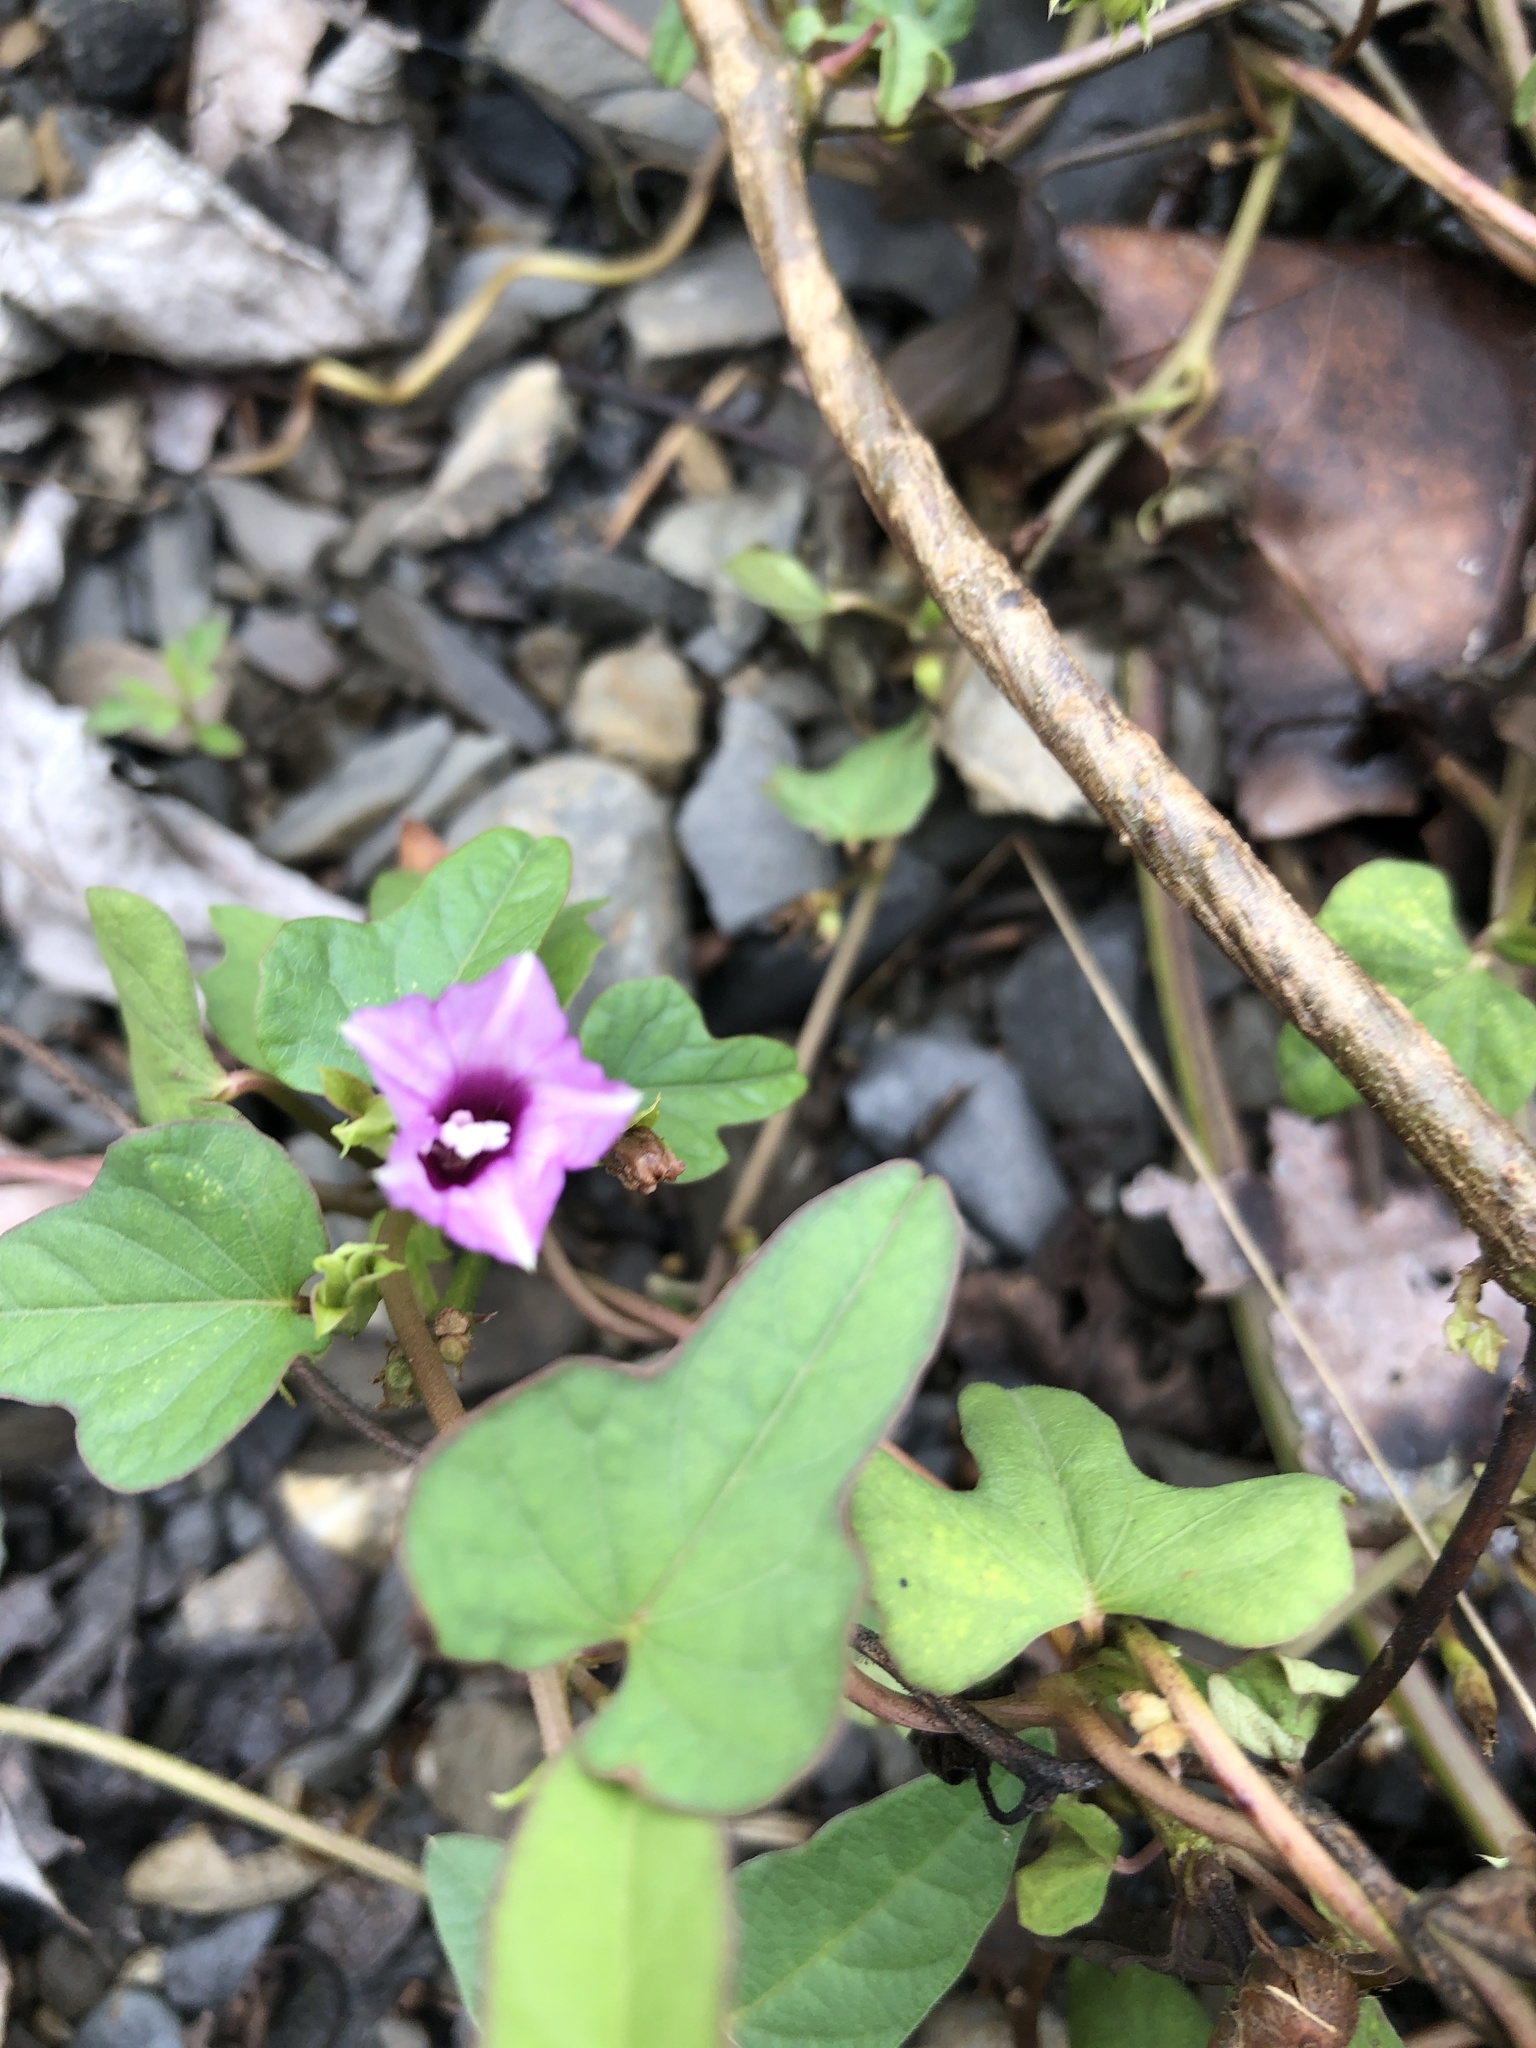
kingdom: Plantae
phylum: Tracheophyta
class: Magnoliopsida
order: Solanales
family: Convolvulaceae
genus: Ipomoea
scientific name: Ipomoea triloba
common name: Little-bell
